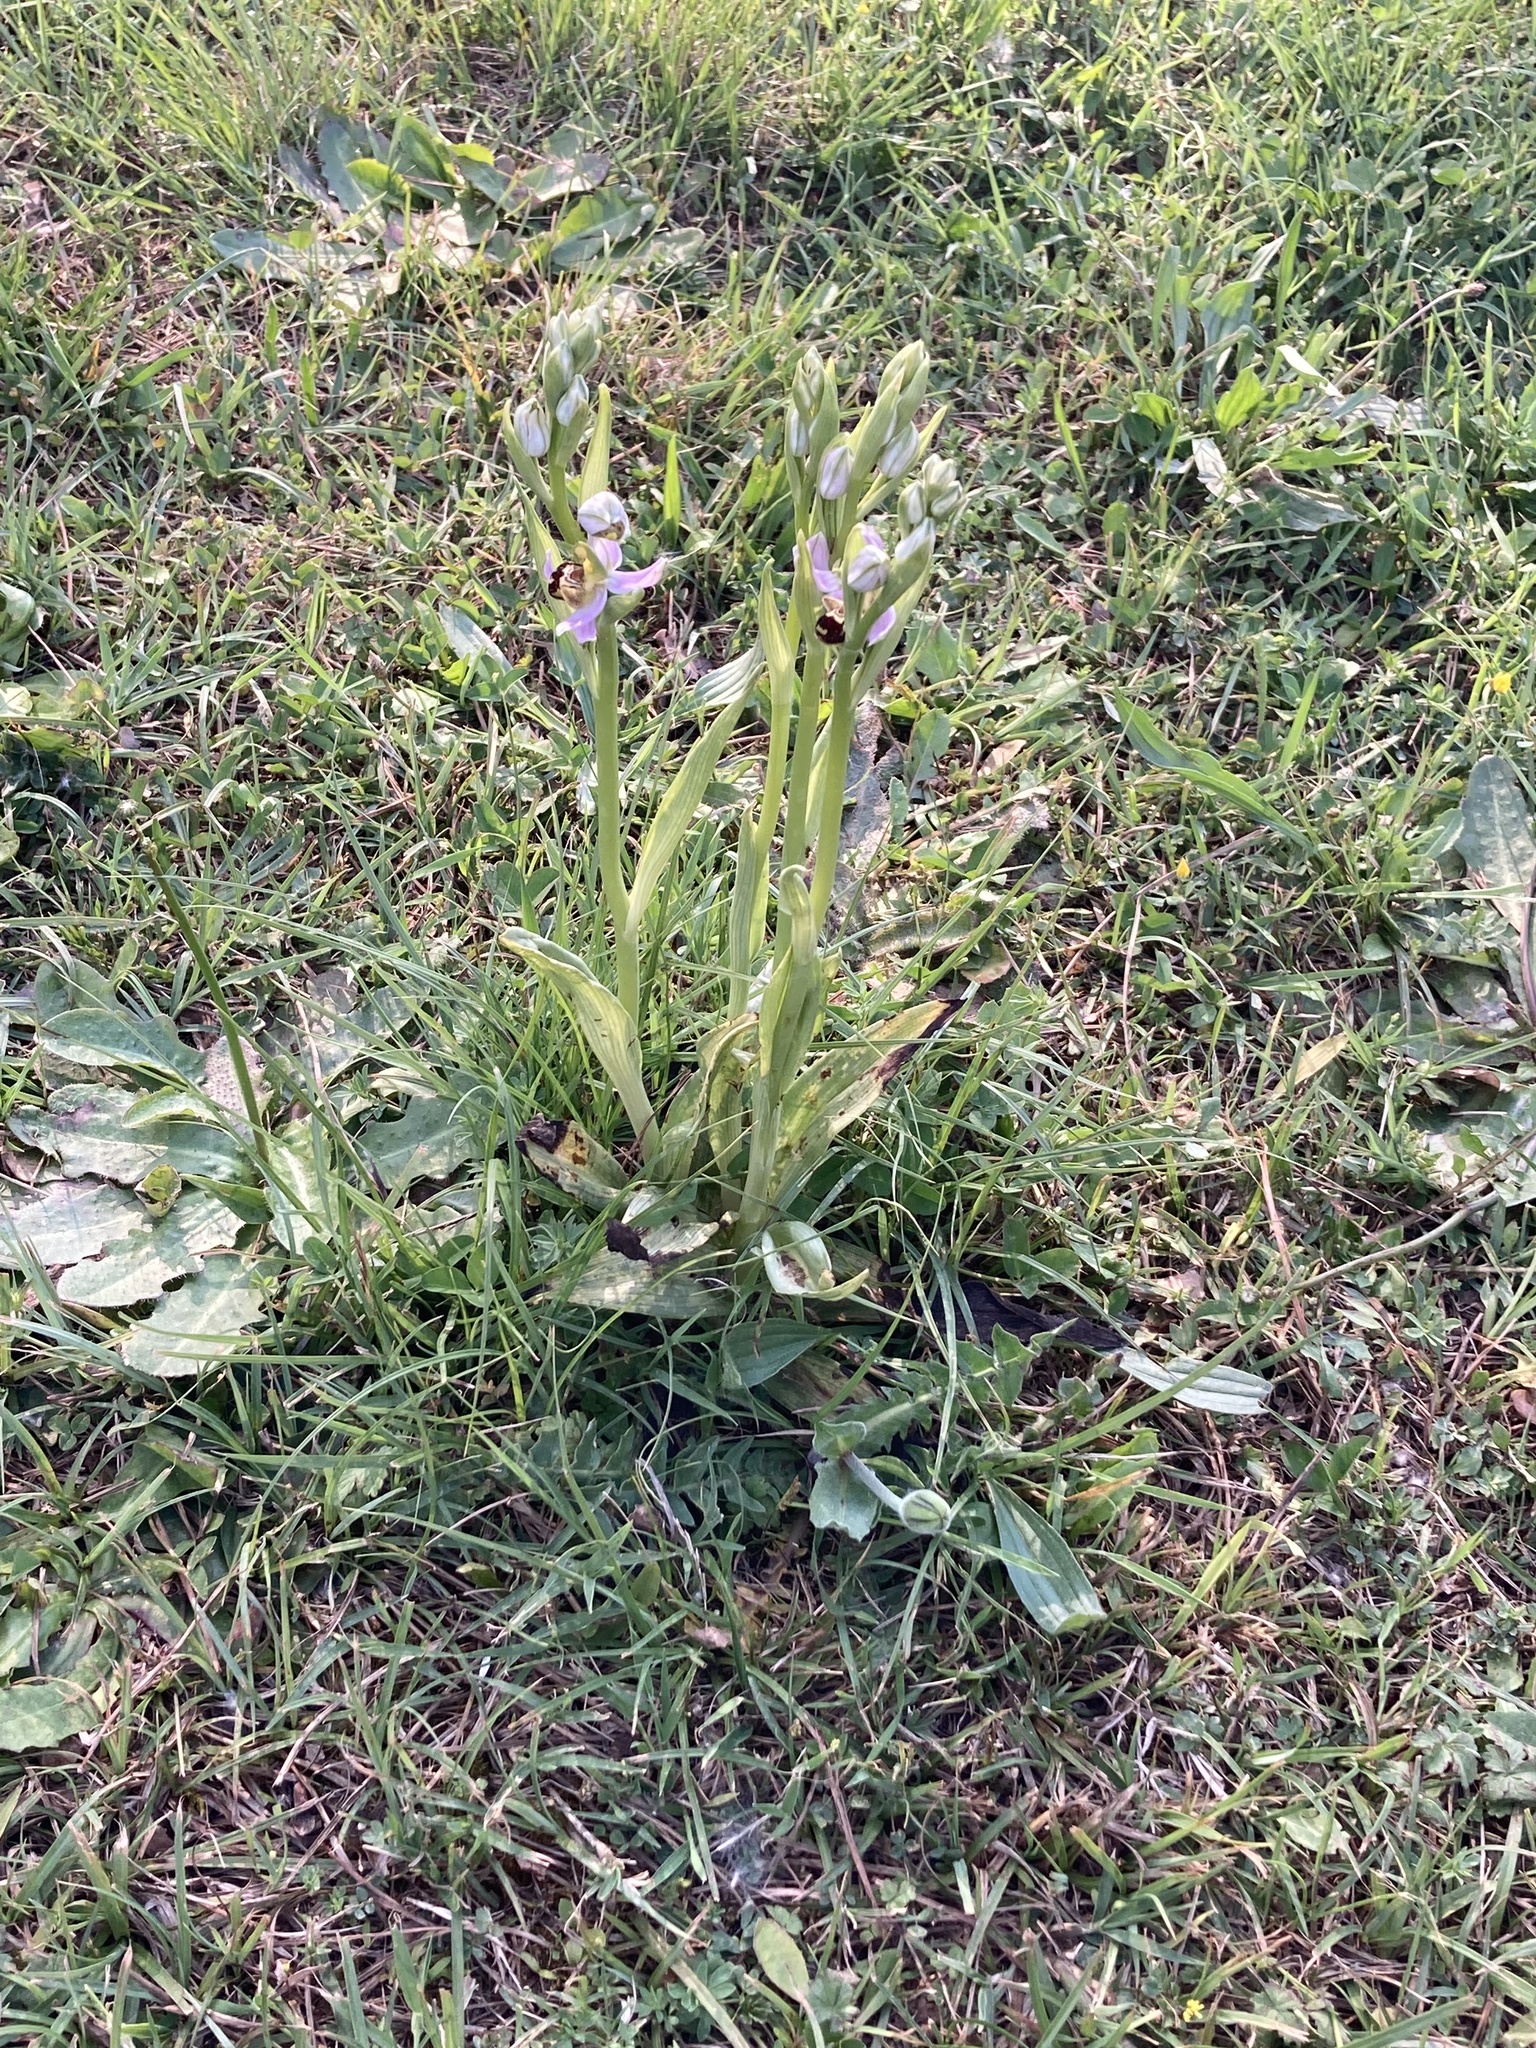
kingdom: Plantae
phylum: Tracheophyta
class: Liliopsida
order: Asparagales
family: Orchidaceae
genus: Ophrys
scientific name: Ophrys apifera
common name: Bee orchid
